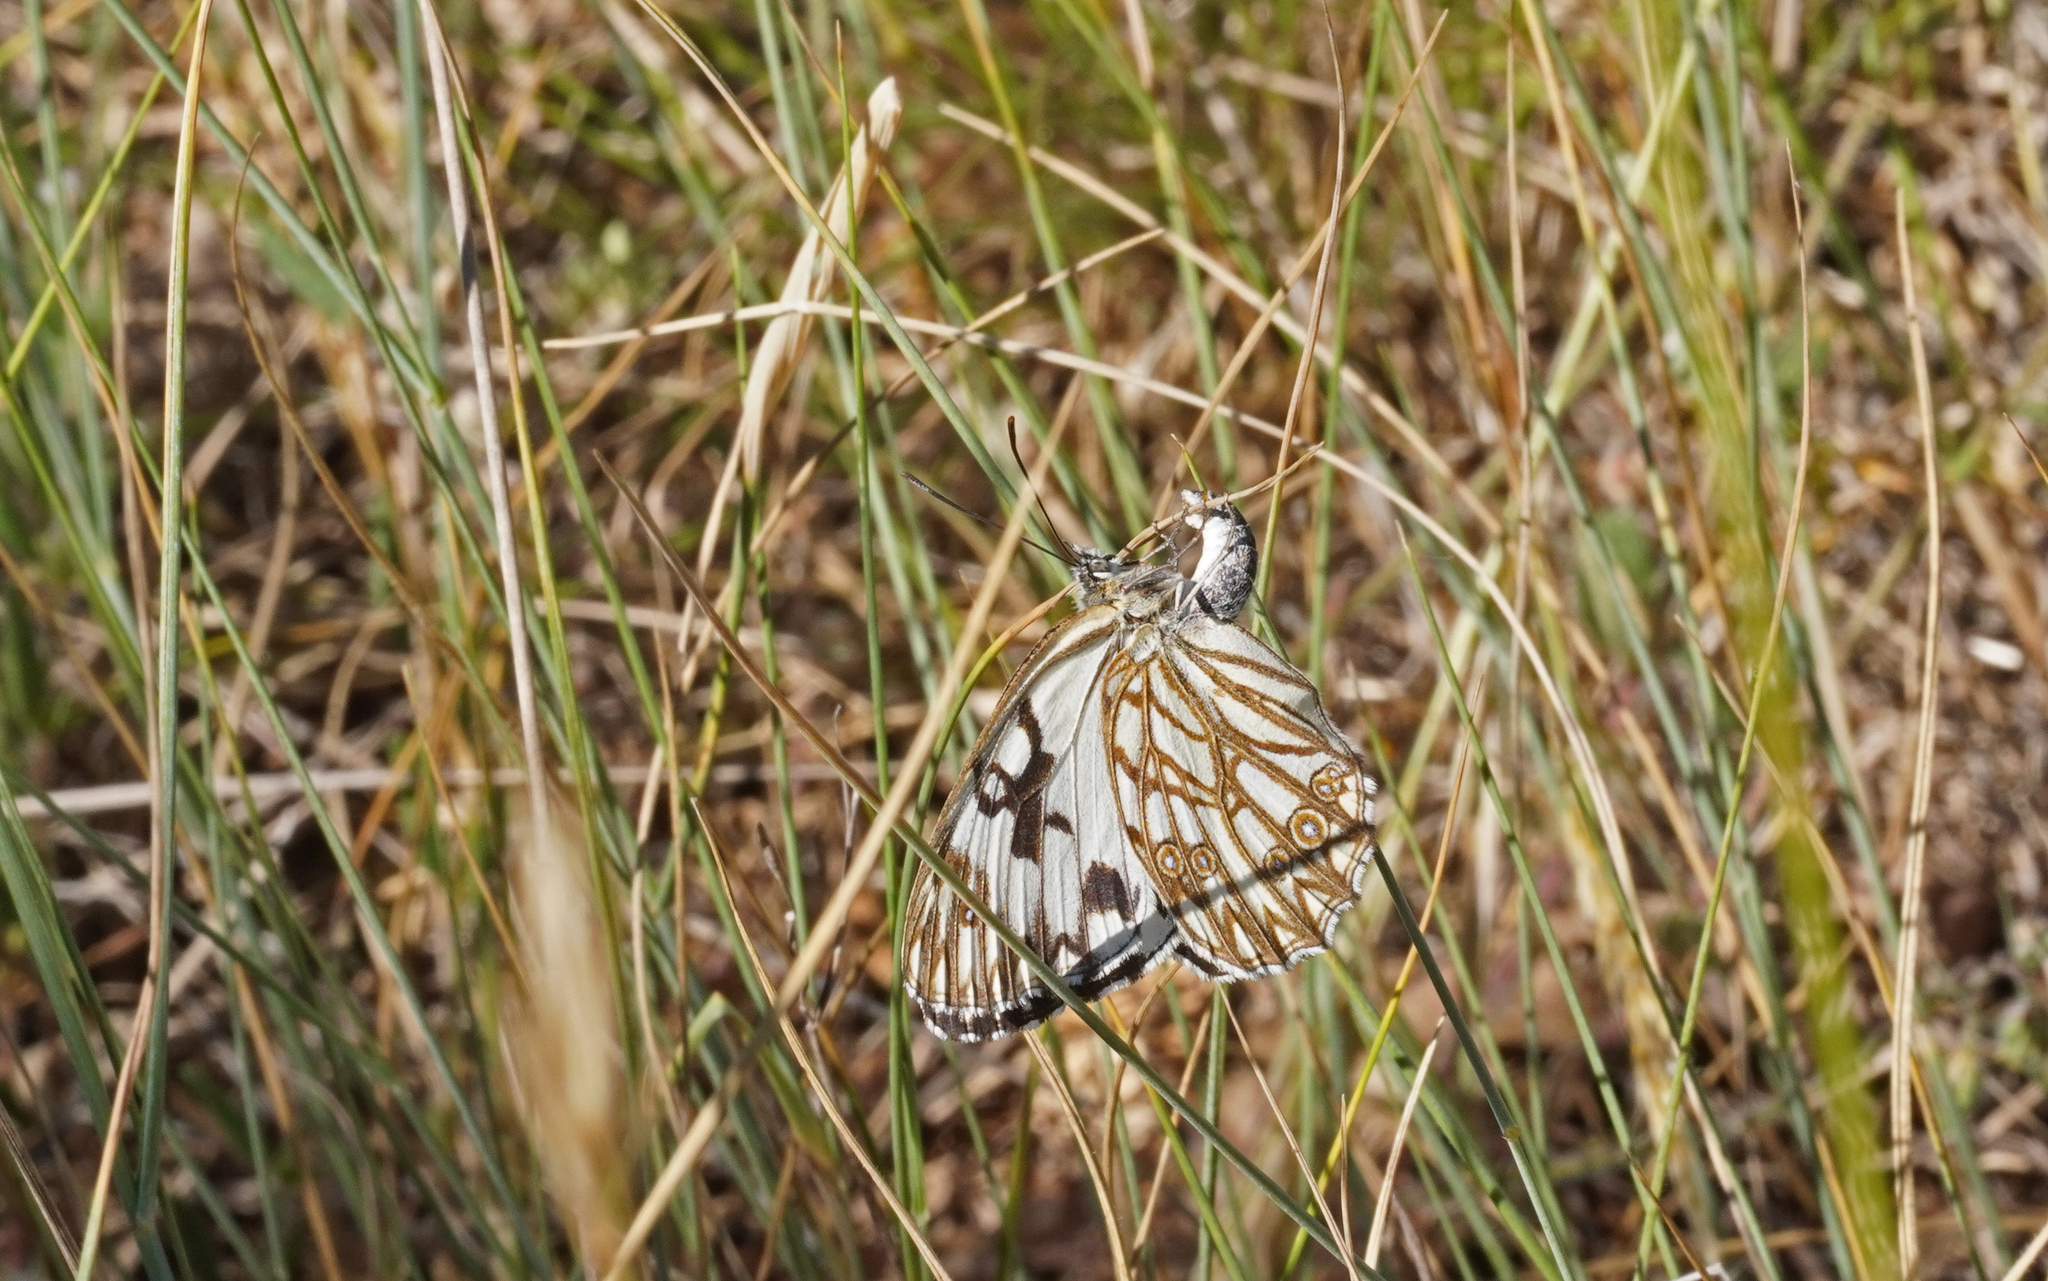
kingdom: Animalia
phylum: Arthropoda
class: Insecta
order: Lepidoptera
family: Nymphalidae
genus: Melanargia
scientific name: Melanargia occitanica
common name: Western marbled white
